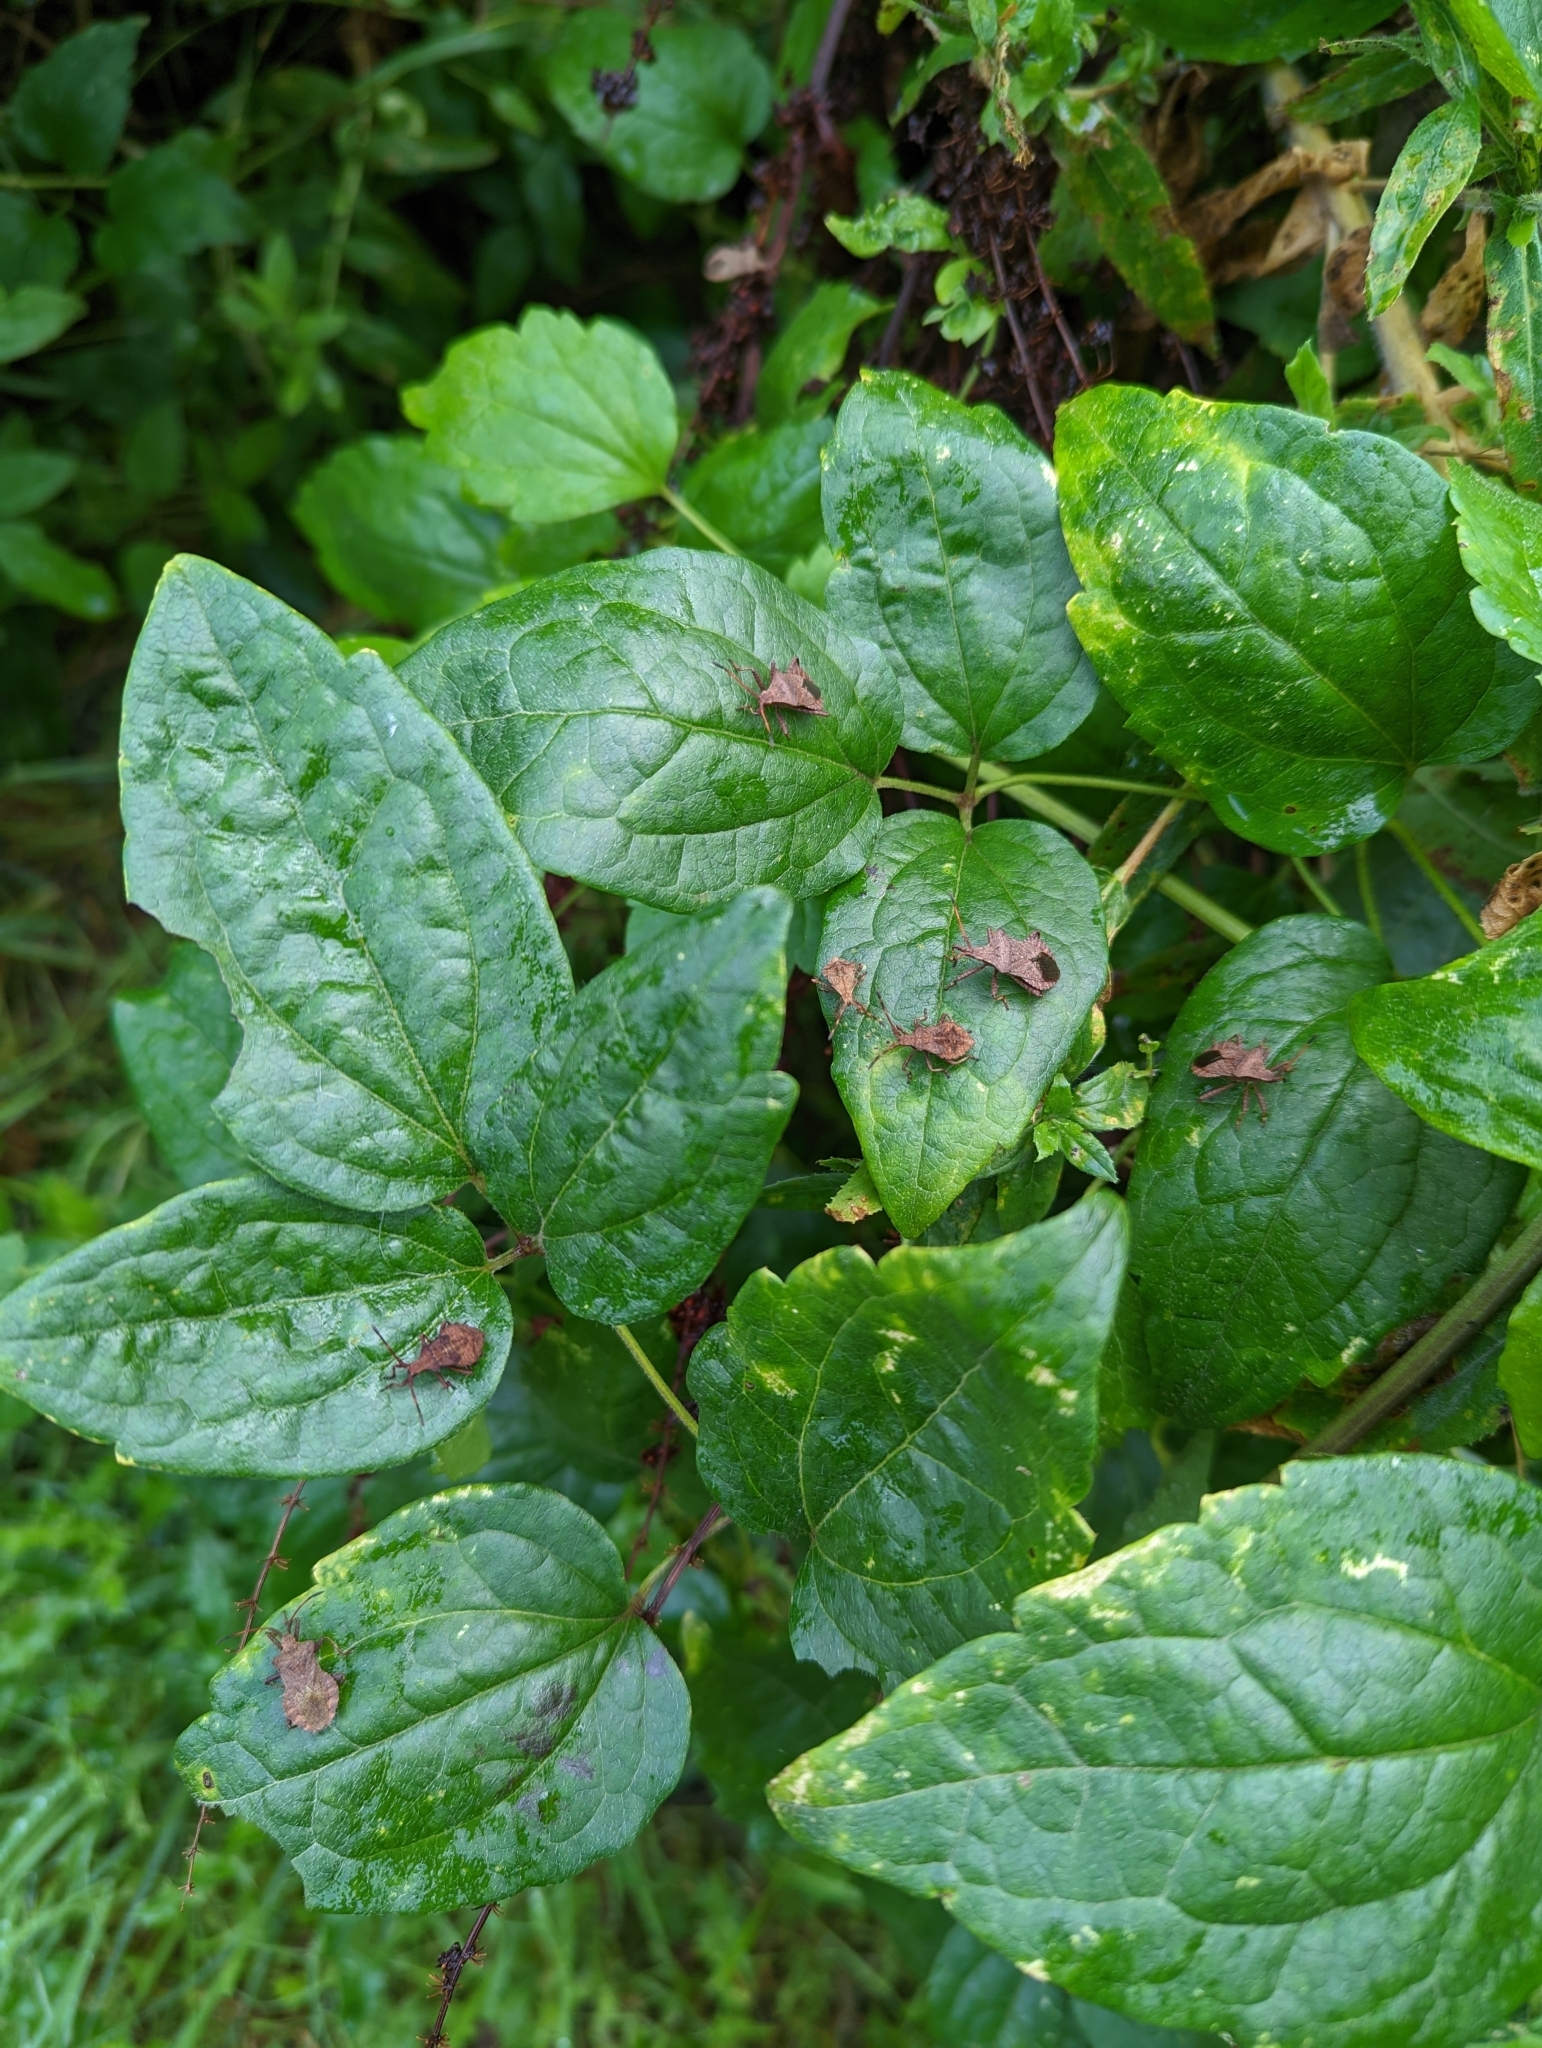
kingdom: Animalia
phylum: Arthropoda
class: Insecta
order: Hemiptera
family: Coreidae
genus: Coreus
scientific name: Coreus marginatus
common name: Dock bug
